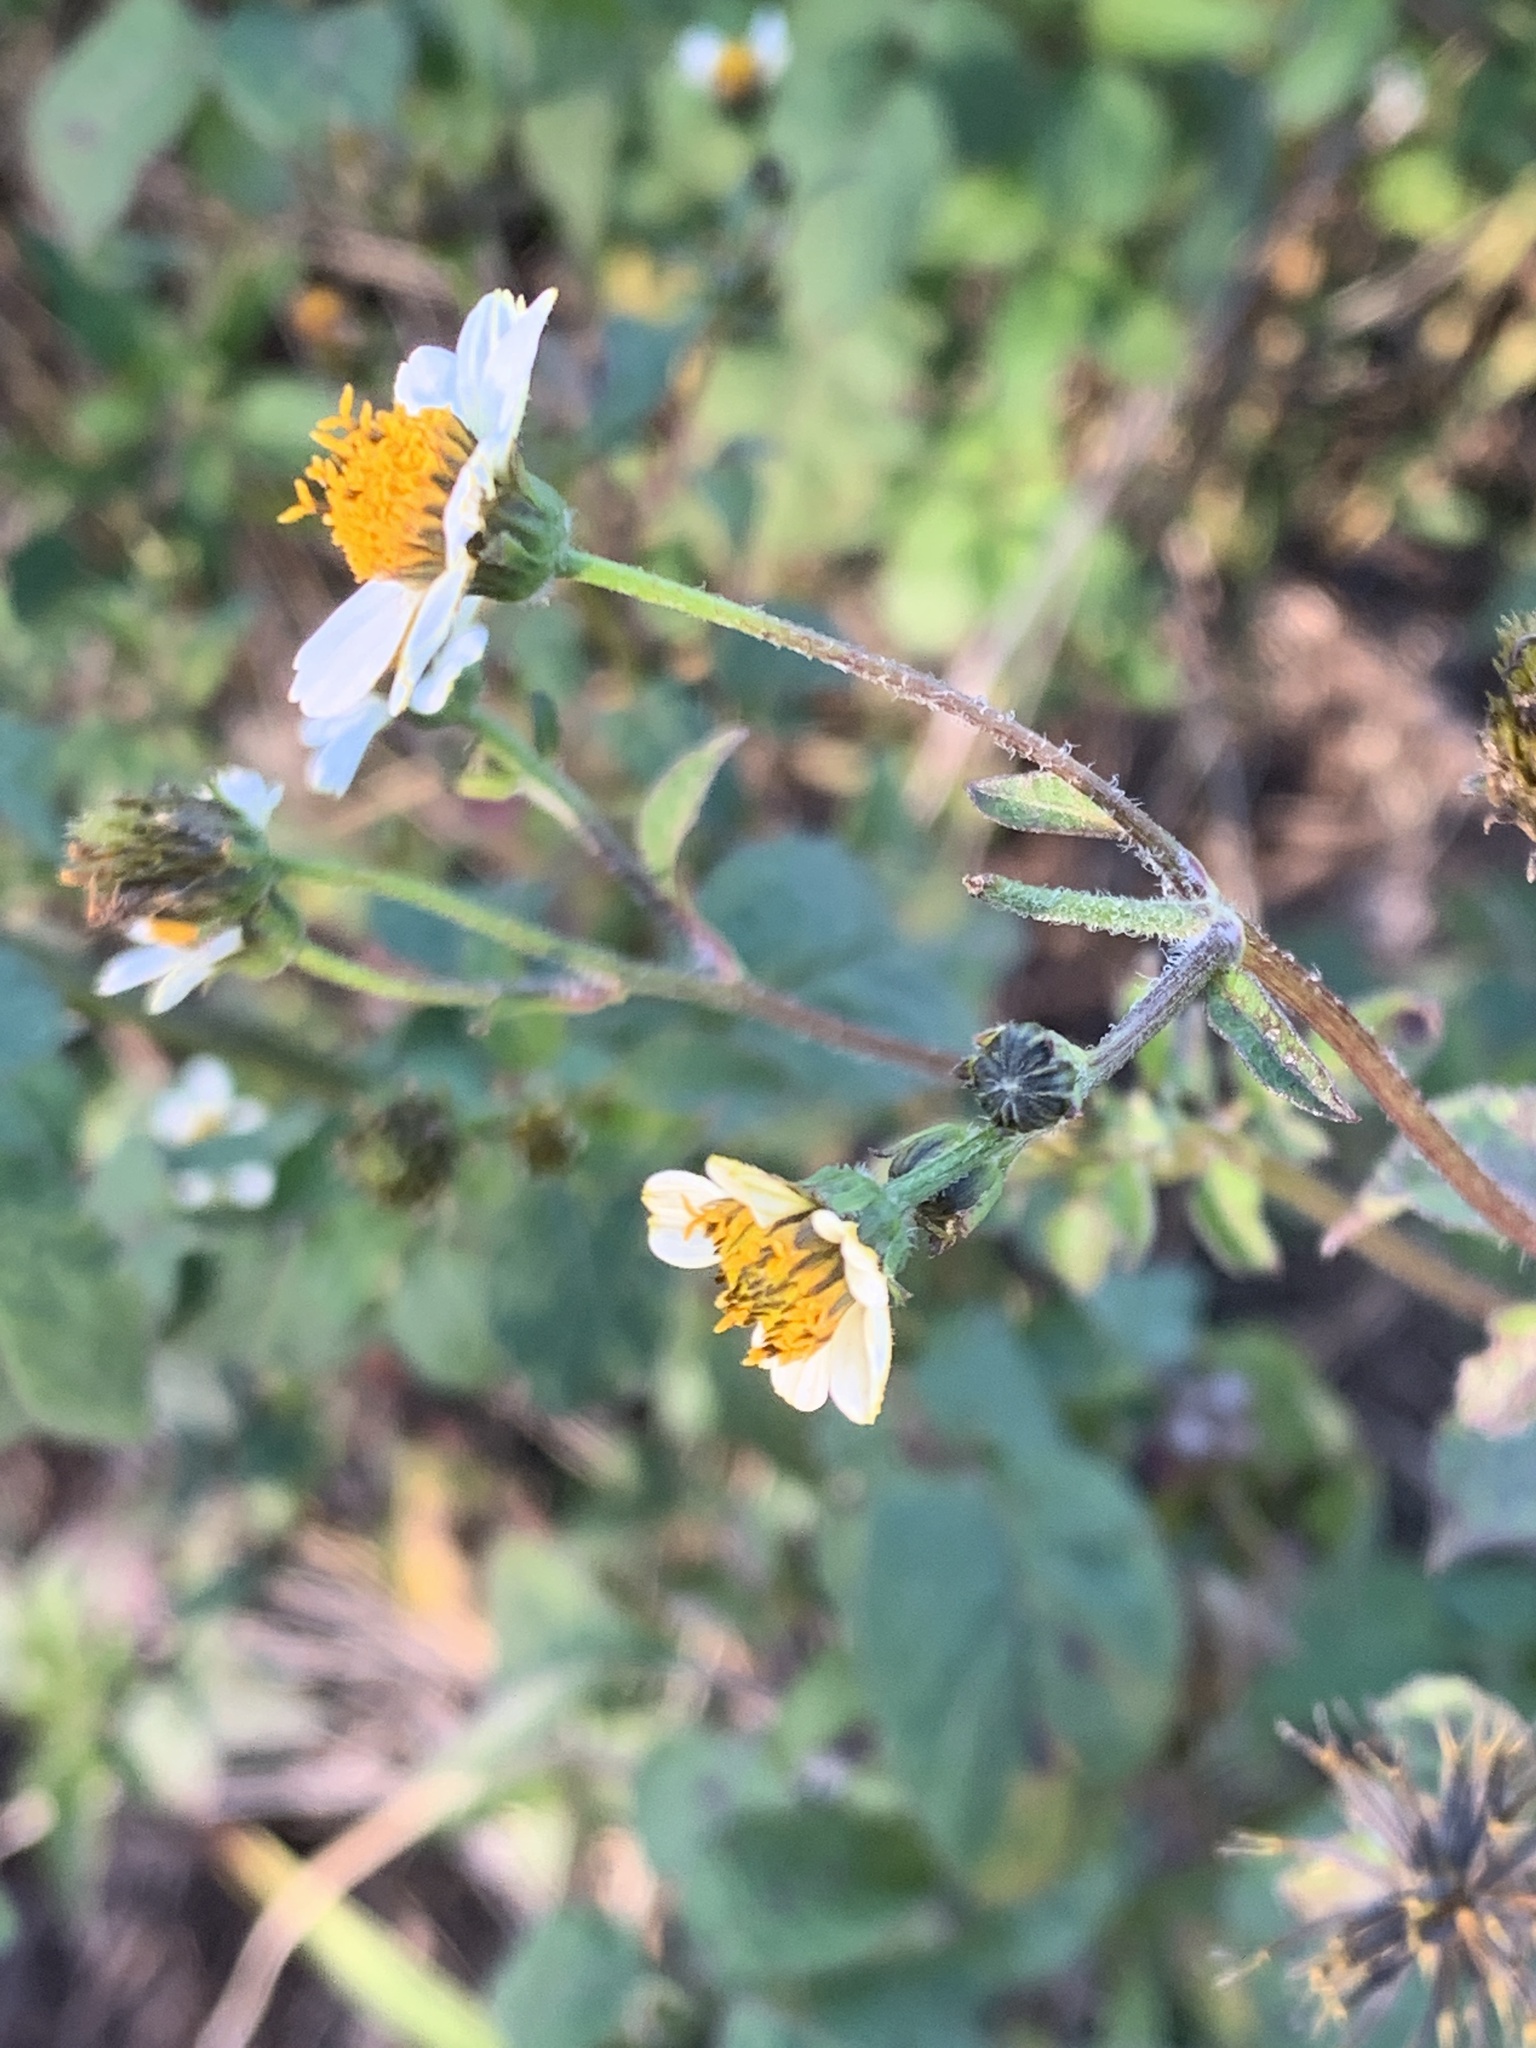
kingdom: Plantae
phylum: Tracheophyta
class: Magnoliopsida
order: Asterales
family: Asteraceae
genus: Bidens
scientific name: Bidens pilosa
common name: Black-jack
